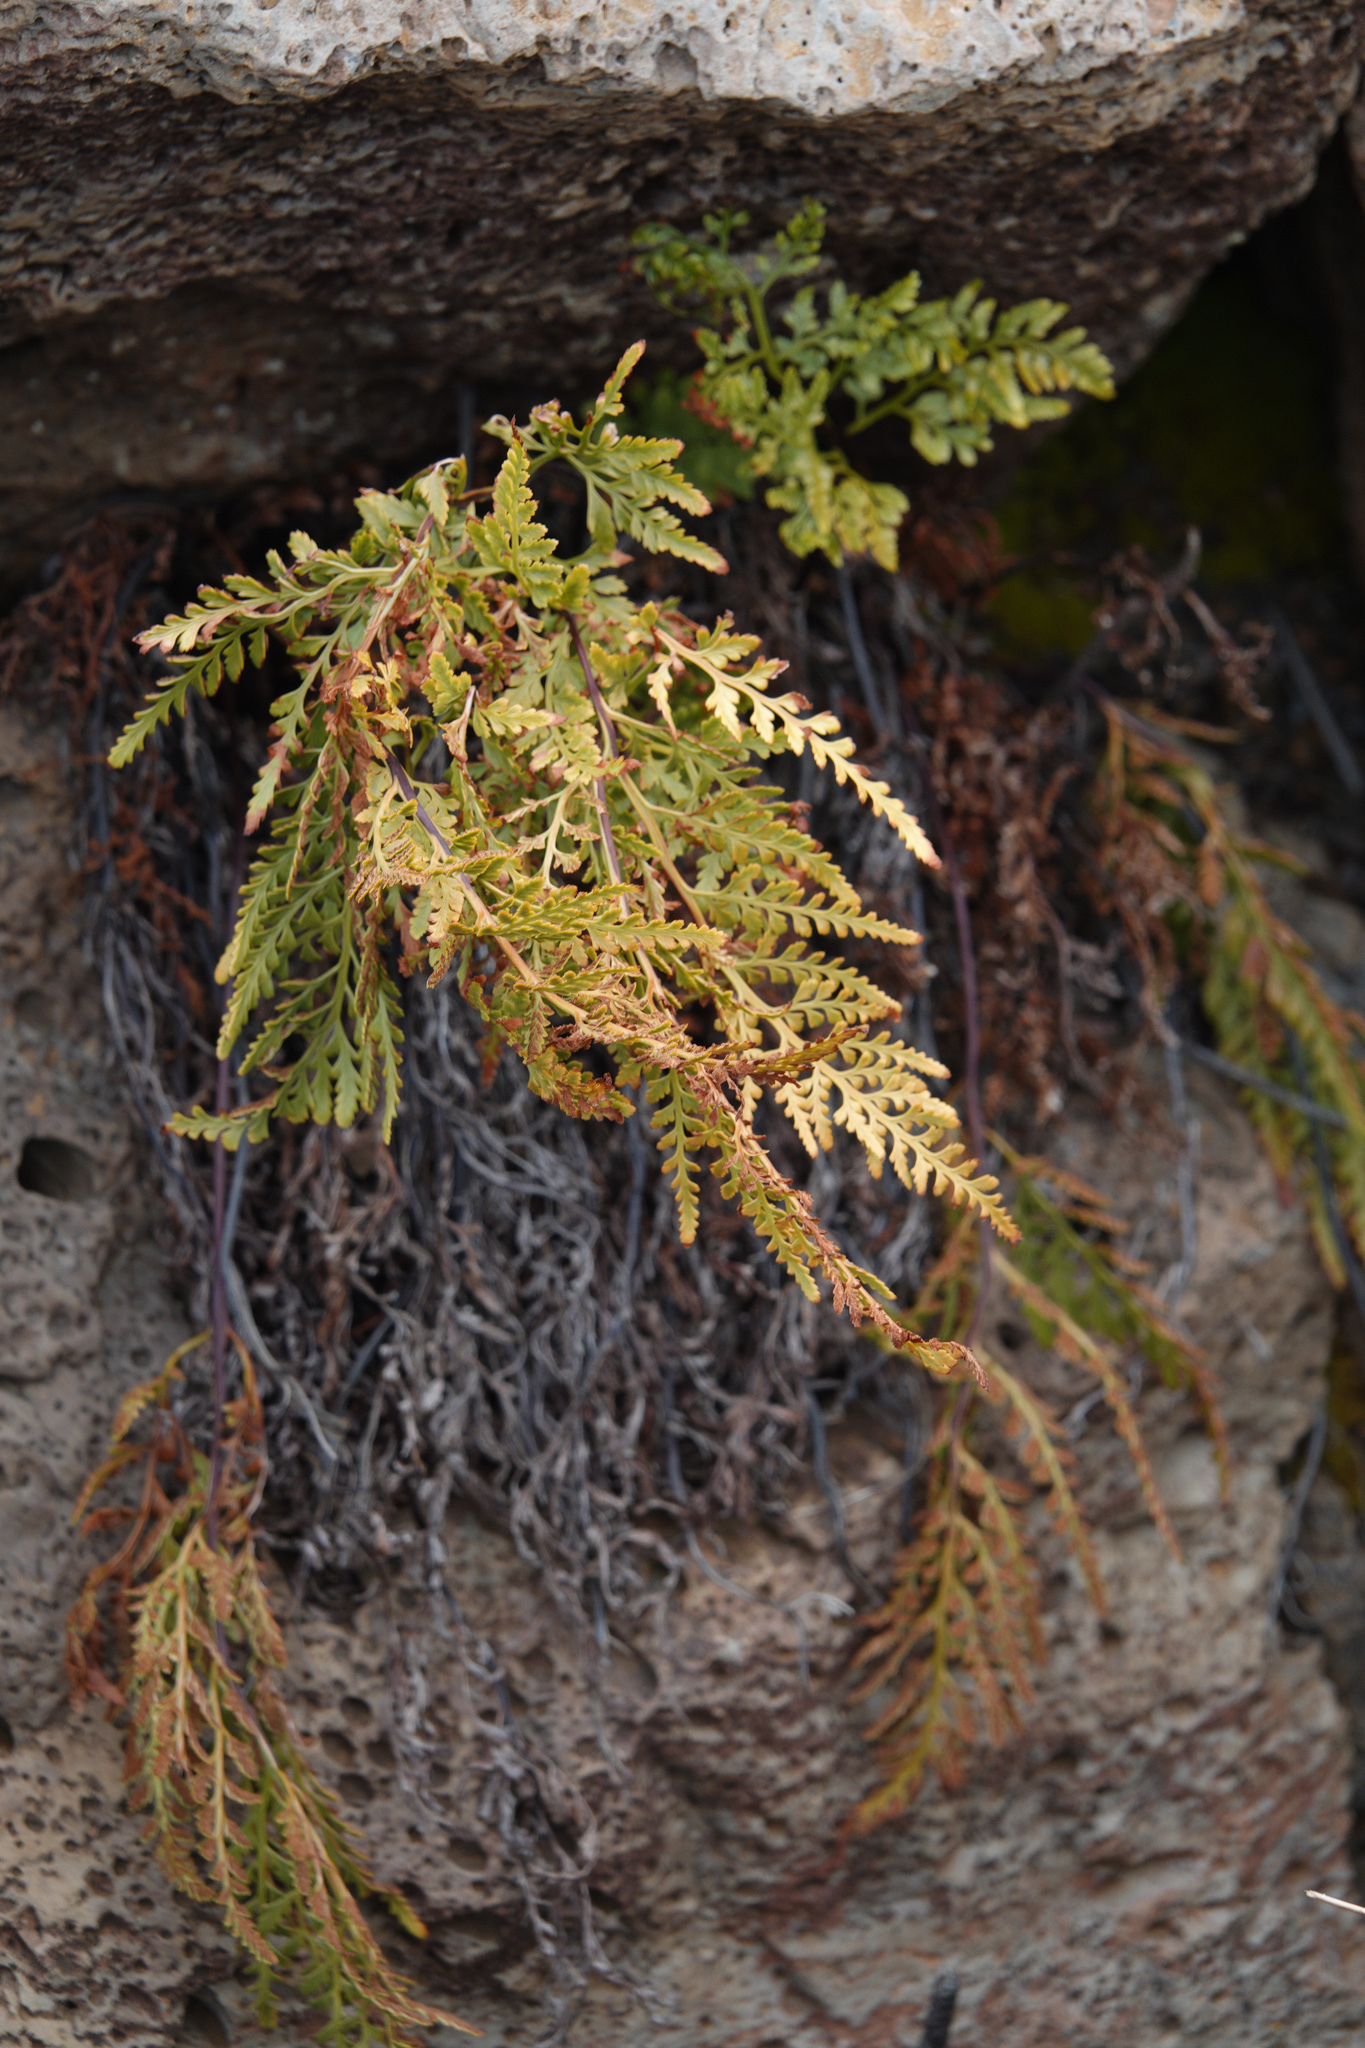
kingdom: Plantae
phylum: Tracheophyta
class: Polypodiopsida
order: Polypodiales
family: Aspleniaceae
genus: Asplenium
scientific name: Asplenium adiantum-nigrum
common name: Black spleenwort
